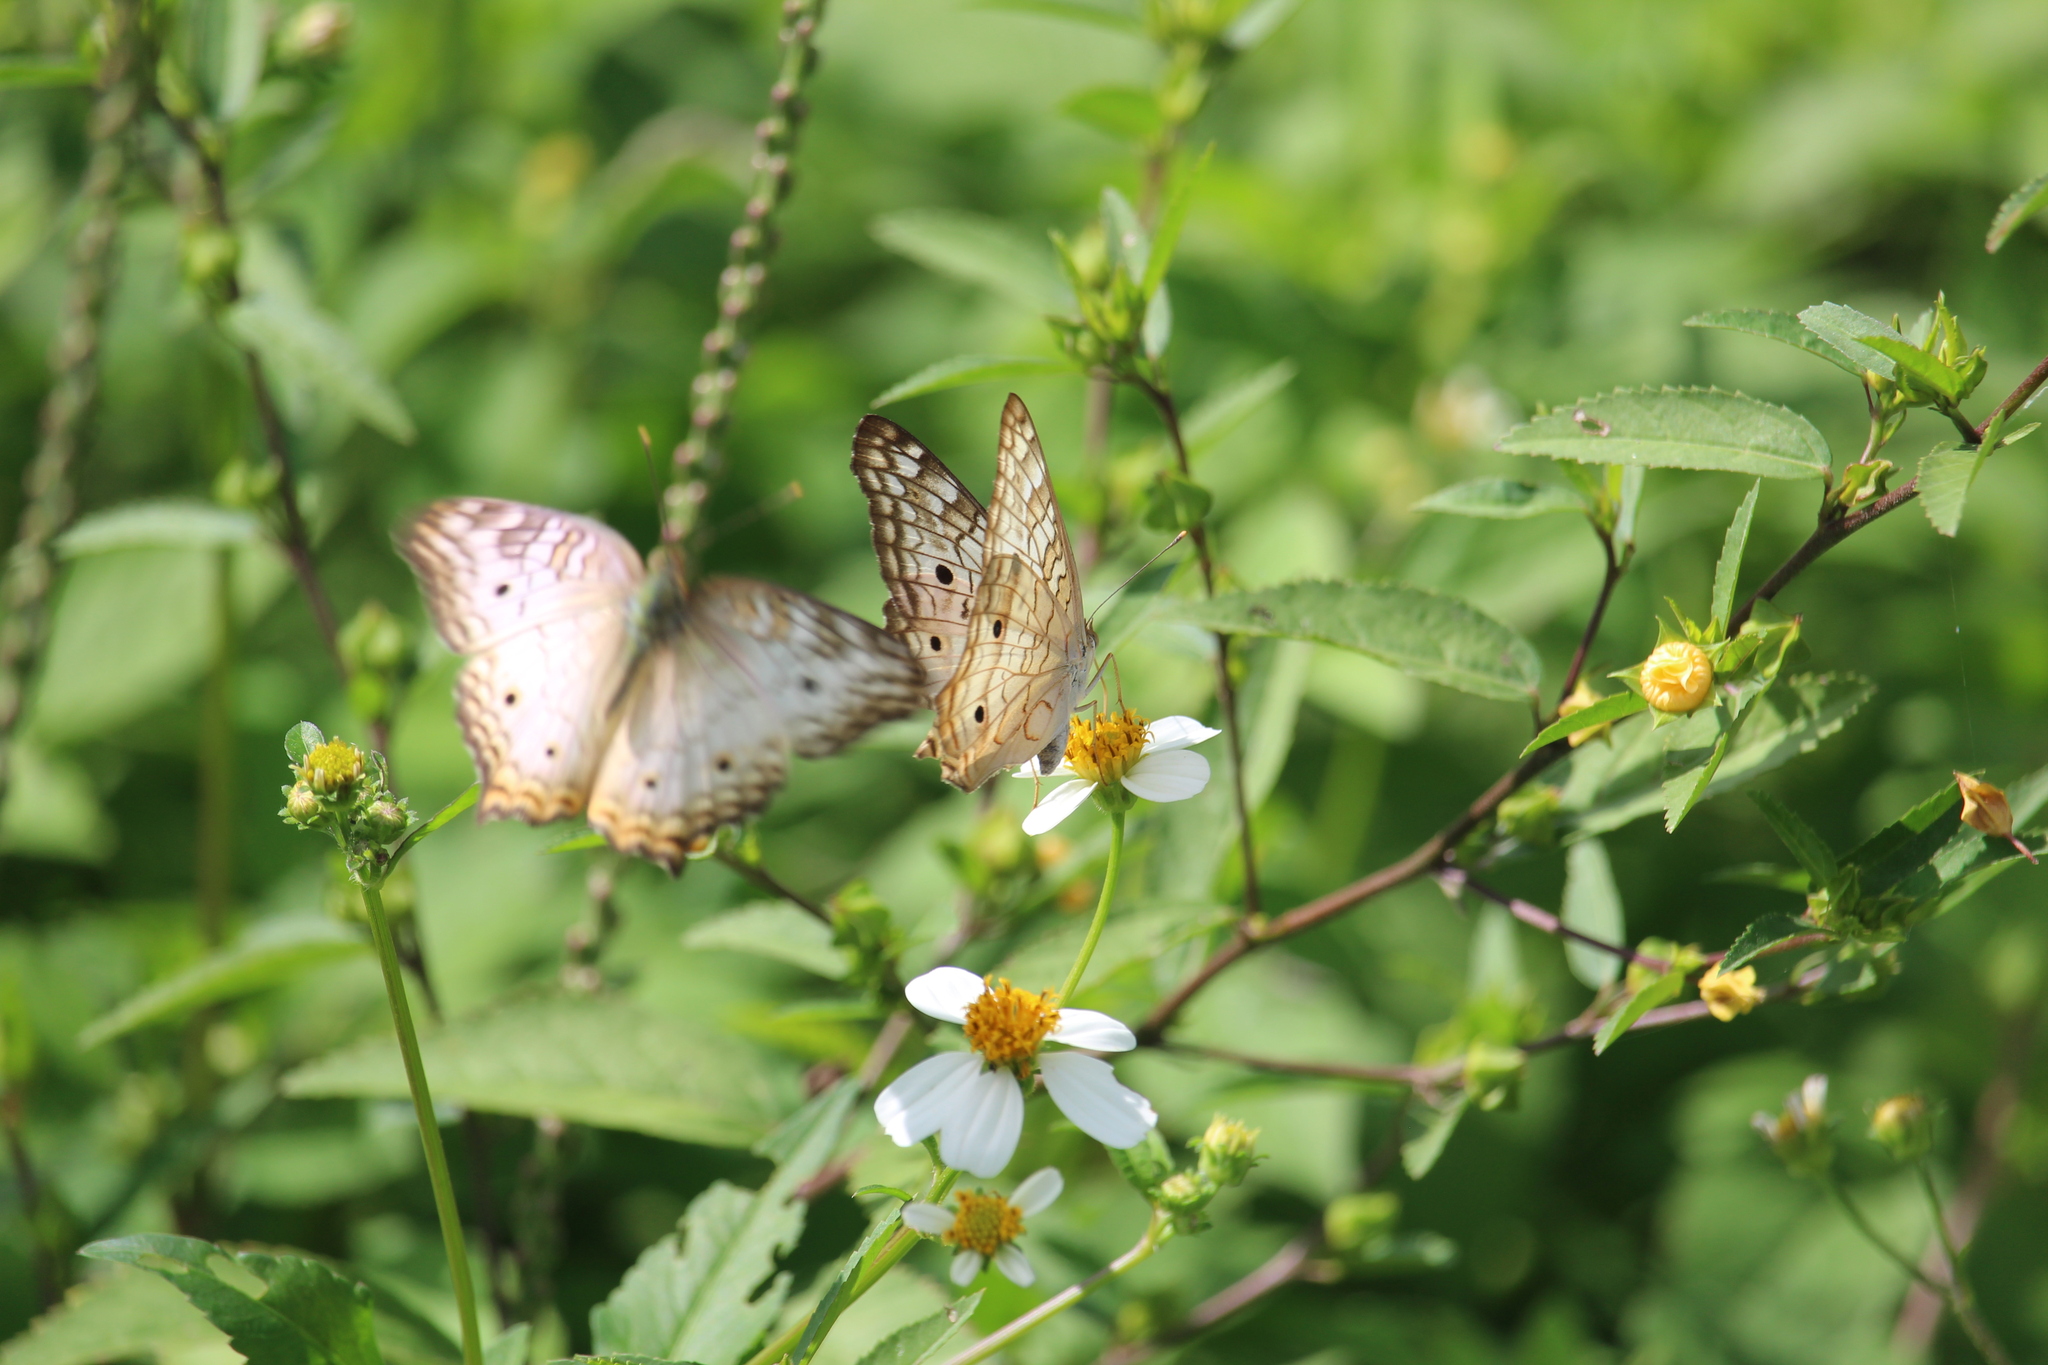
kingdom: Animalia
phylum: Arthropoda
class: Insecta
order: Lepidoptera
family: Nymphalidae
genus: Anartia
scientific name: Anartia jatrophae
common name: White peacock
